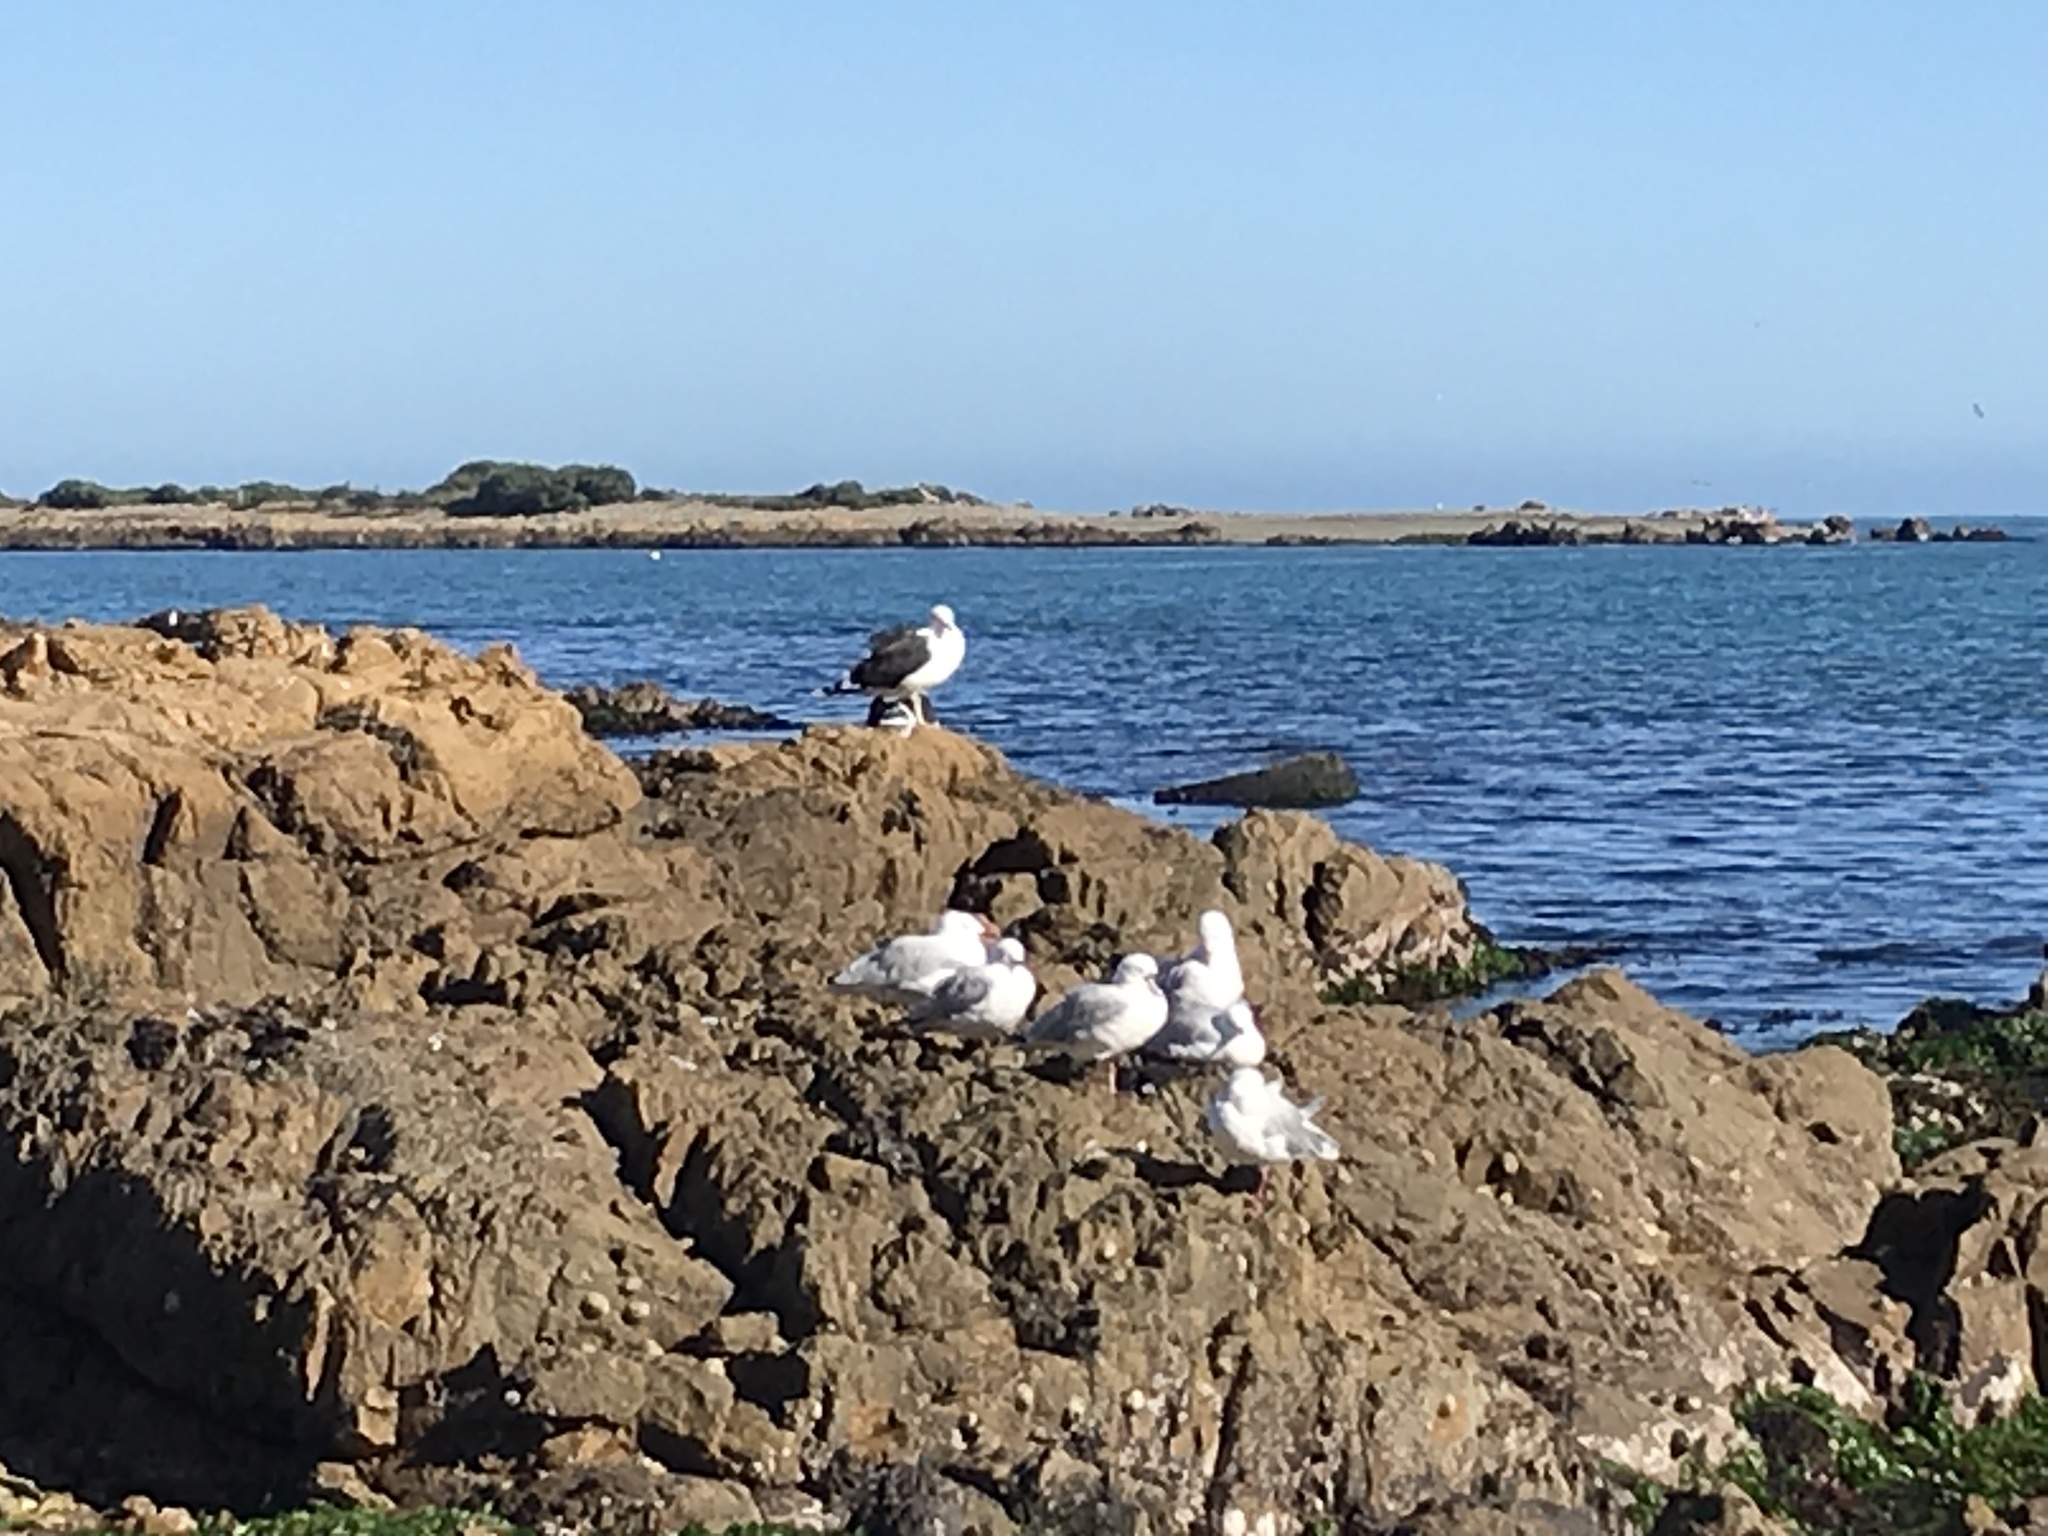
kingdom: Animalia
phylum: Chordata
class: Aves
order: Charadriiformes
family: Laridae
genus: Larus
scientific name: Larus dominicanus
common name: Kelp gull
